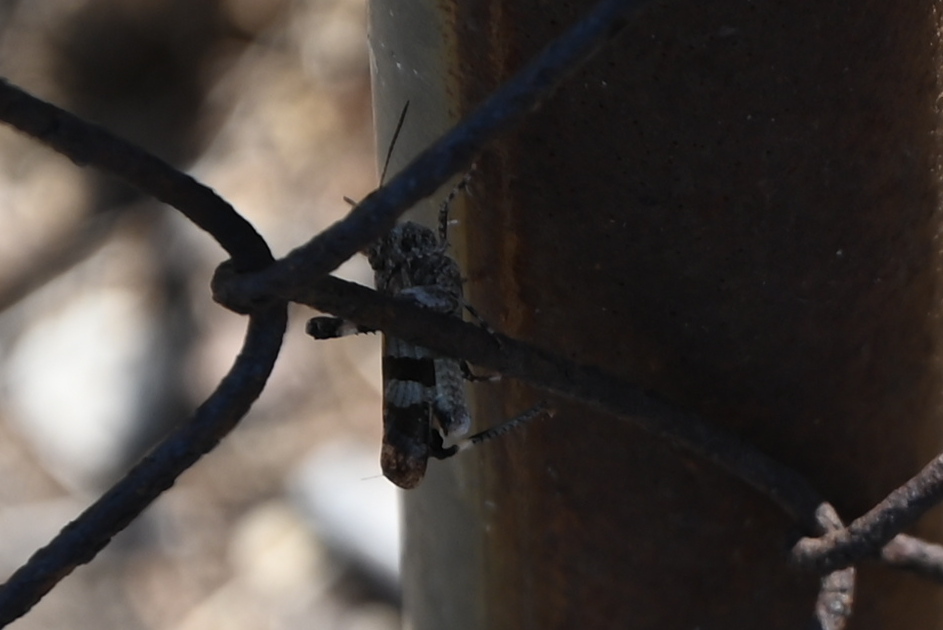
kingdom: Animalia
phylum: Arthropoda
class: Insecta
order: Orthoptera
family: Acrididae
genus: Oedipoda
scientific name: Oedipoda
